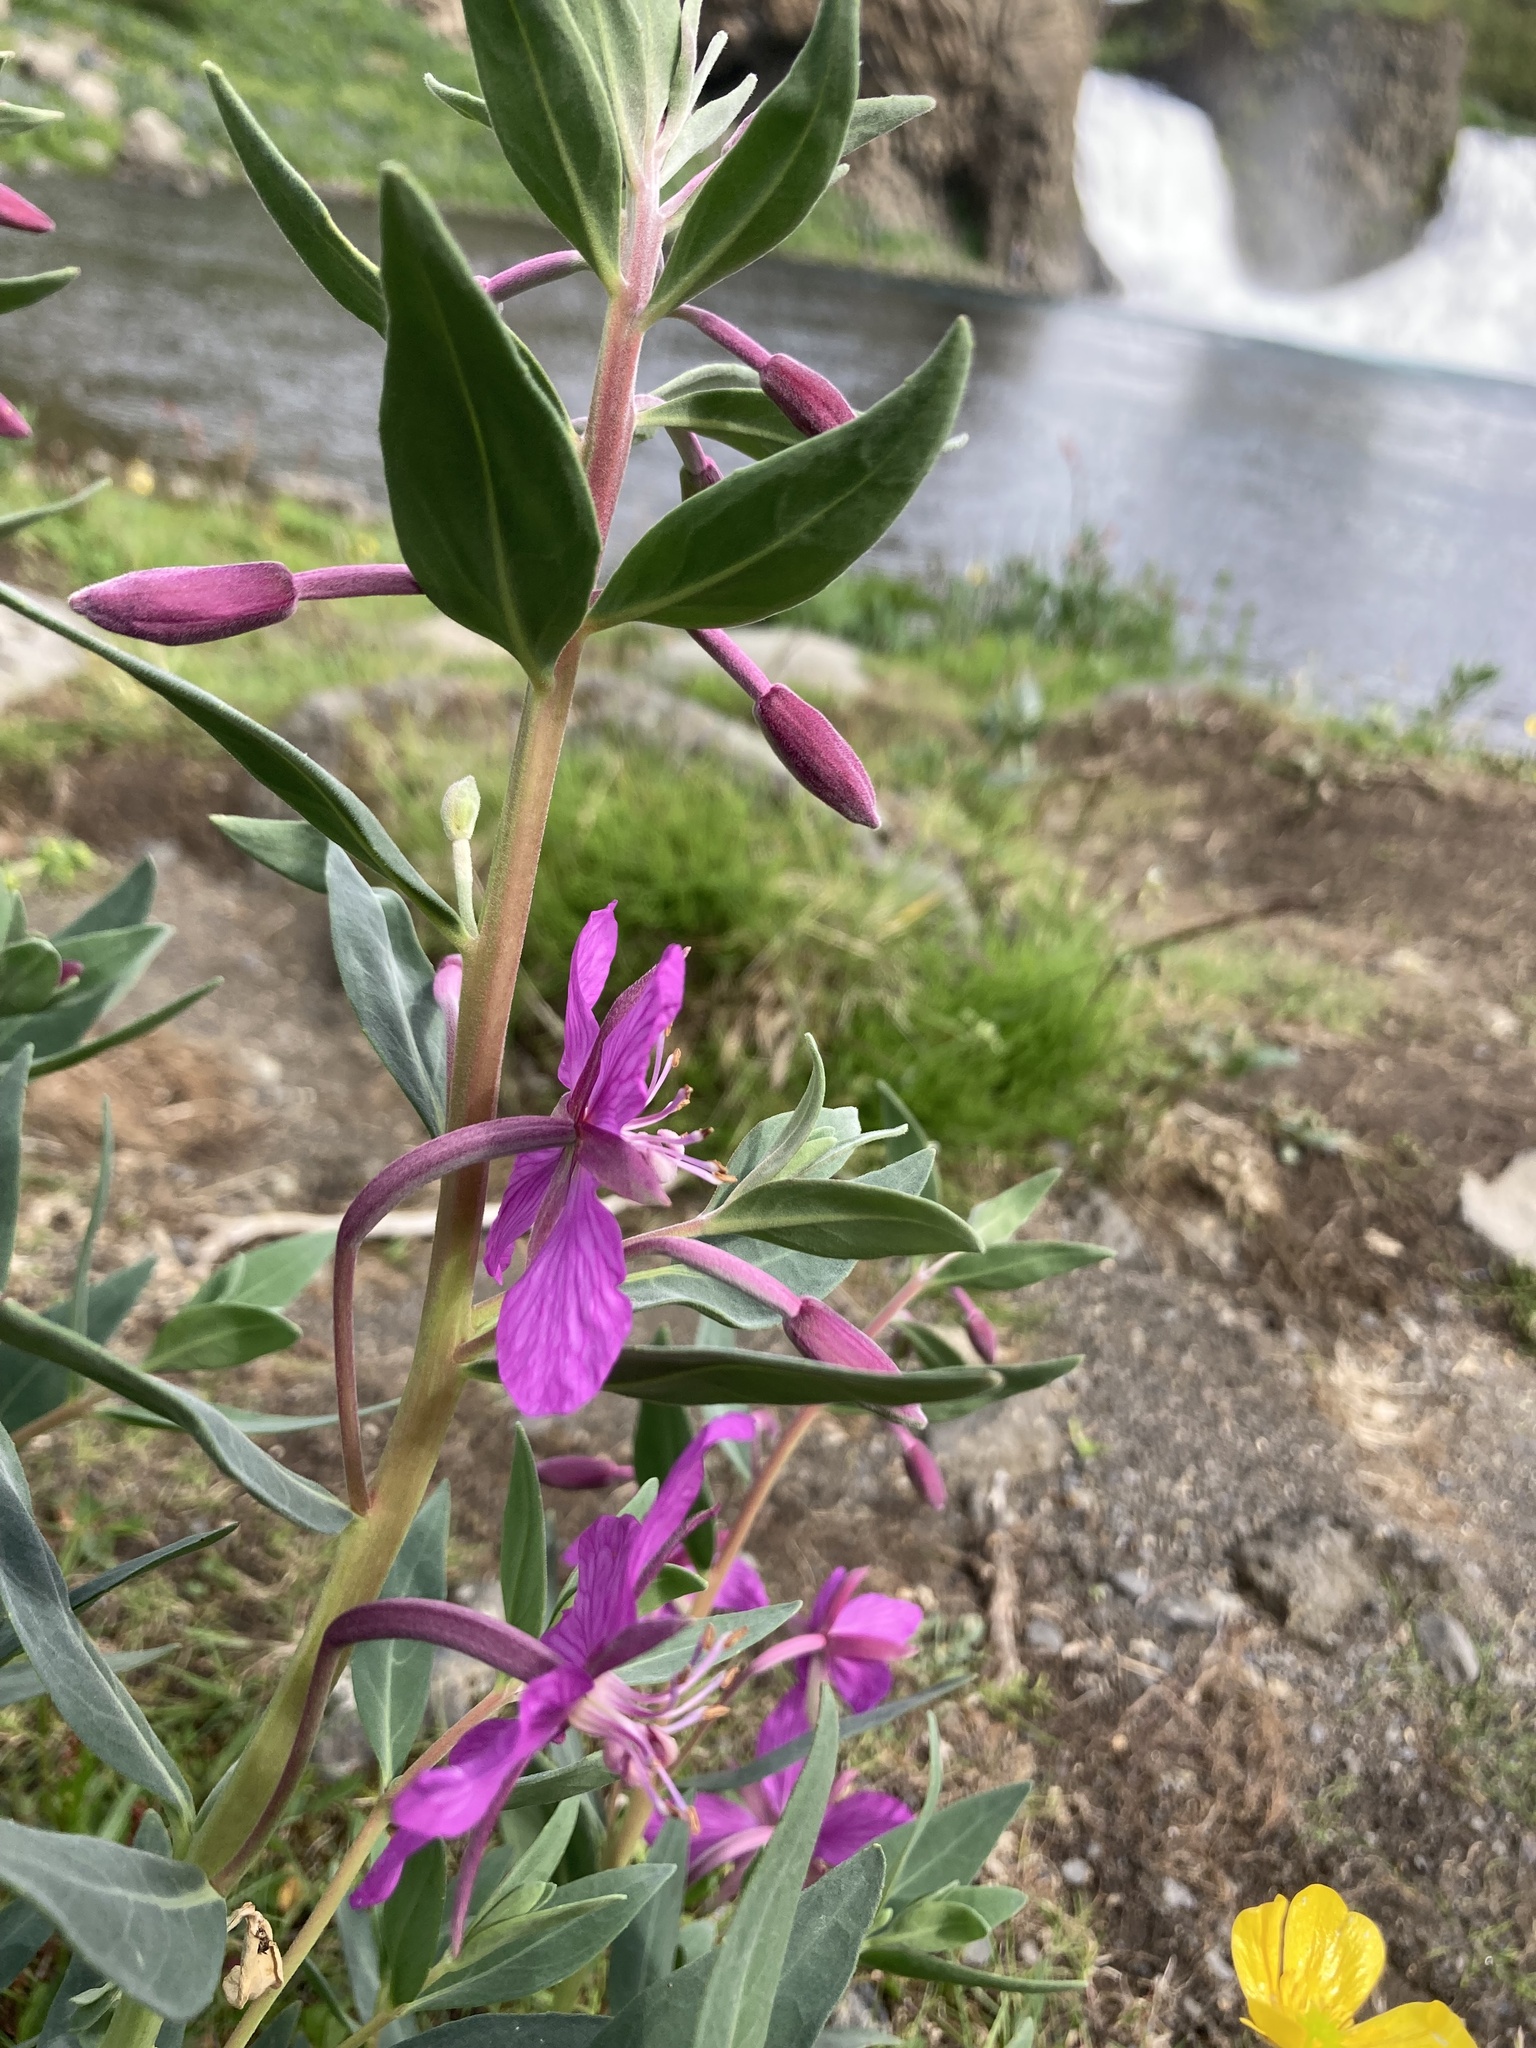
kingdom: Plantae
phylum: Tracheophyta
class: Magnoliopsida
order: Myrtales
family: Onagraceae
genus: Chamaenerion
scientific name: Chamaenerion latifolium
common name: Dwarf fireweed
